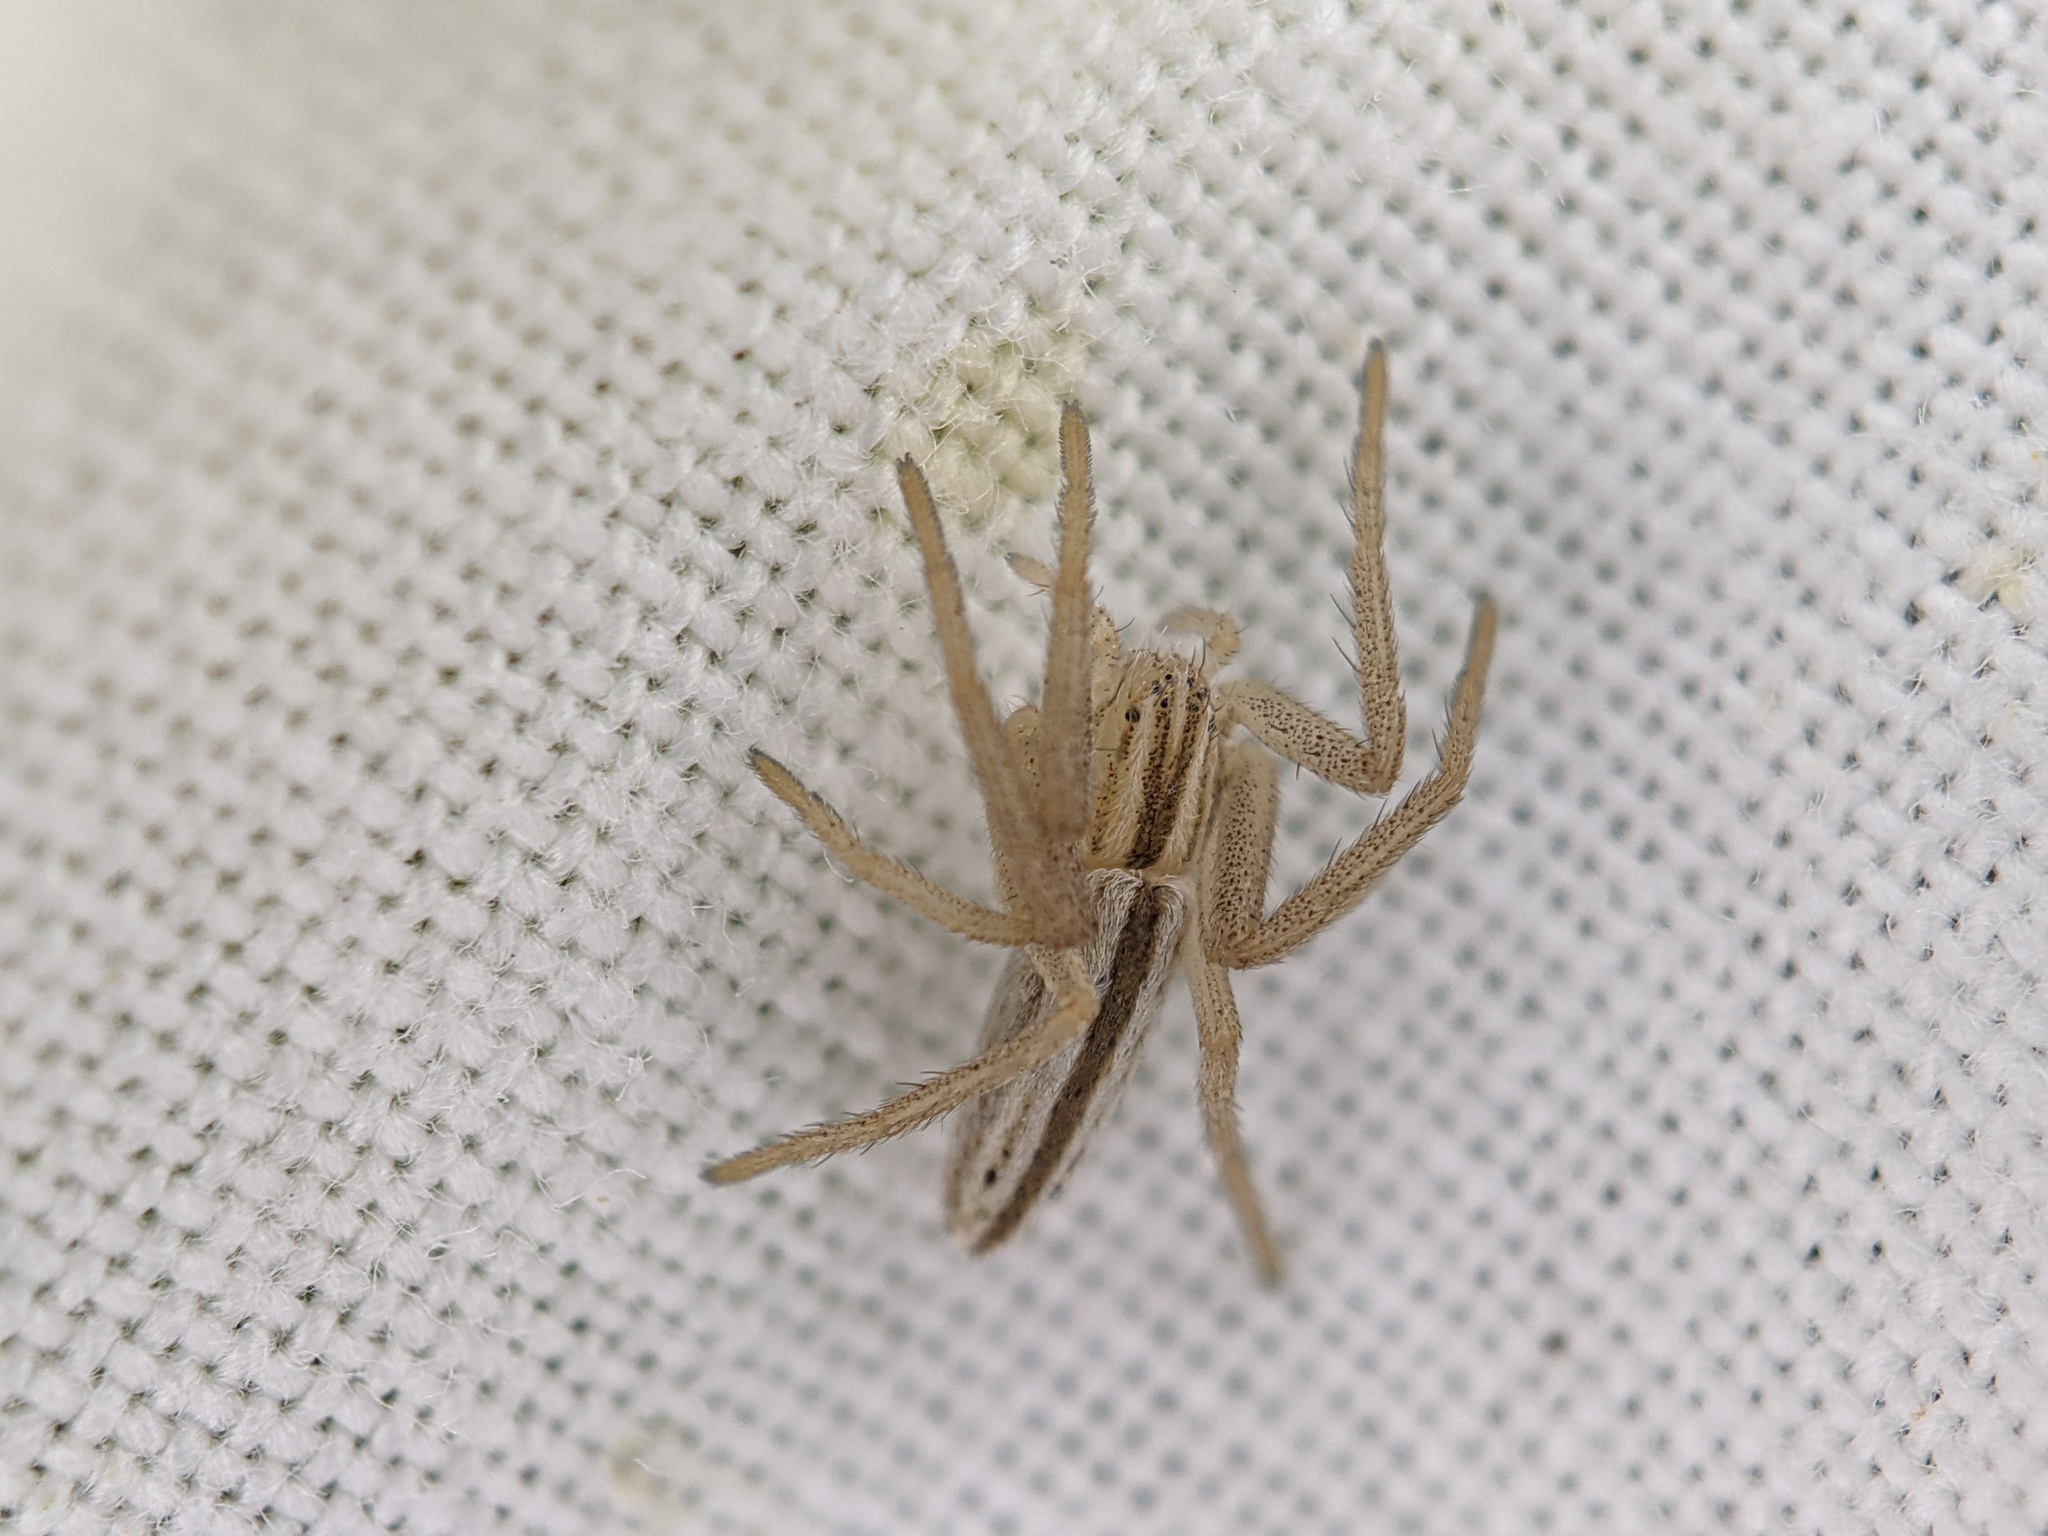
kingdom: Animalia
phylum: Arthropoda
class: Arachnida
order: Araneae
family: Philodromidae
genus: Tibellus
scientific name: Tibellus
